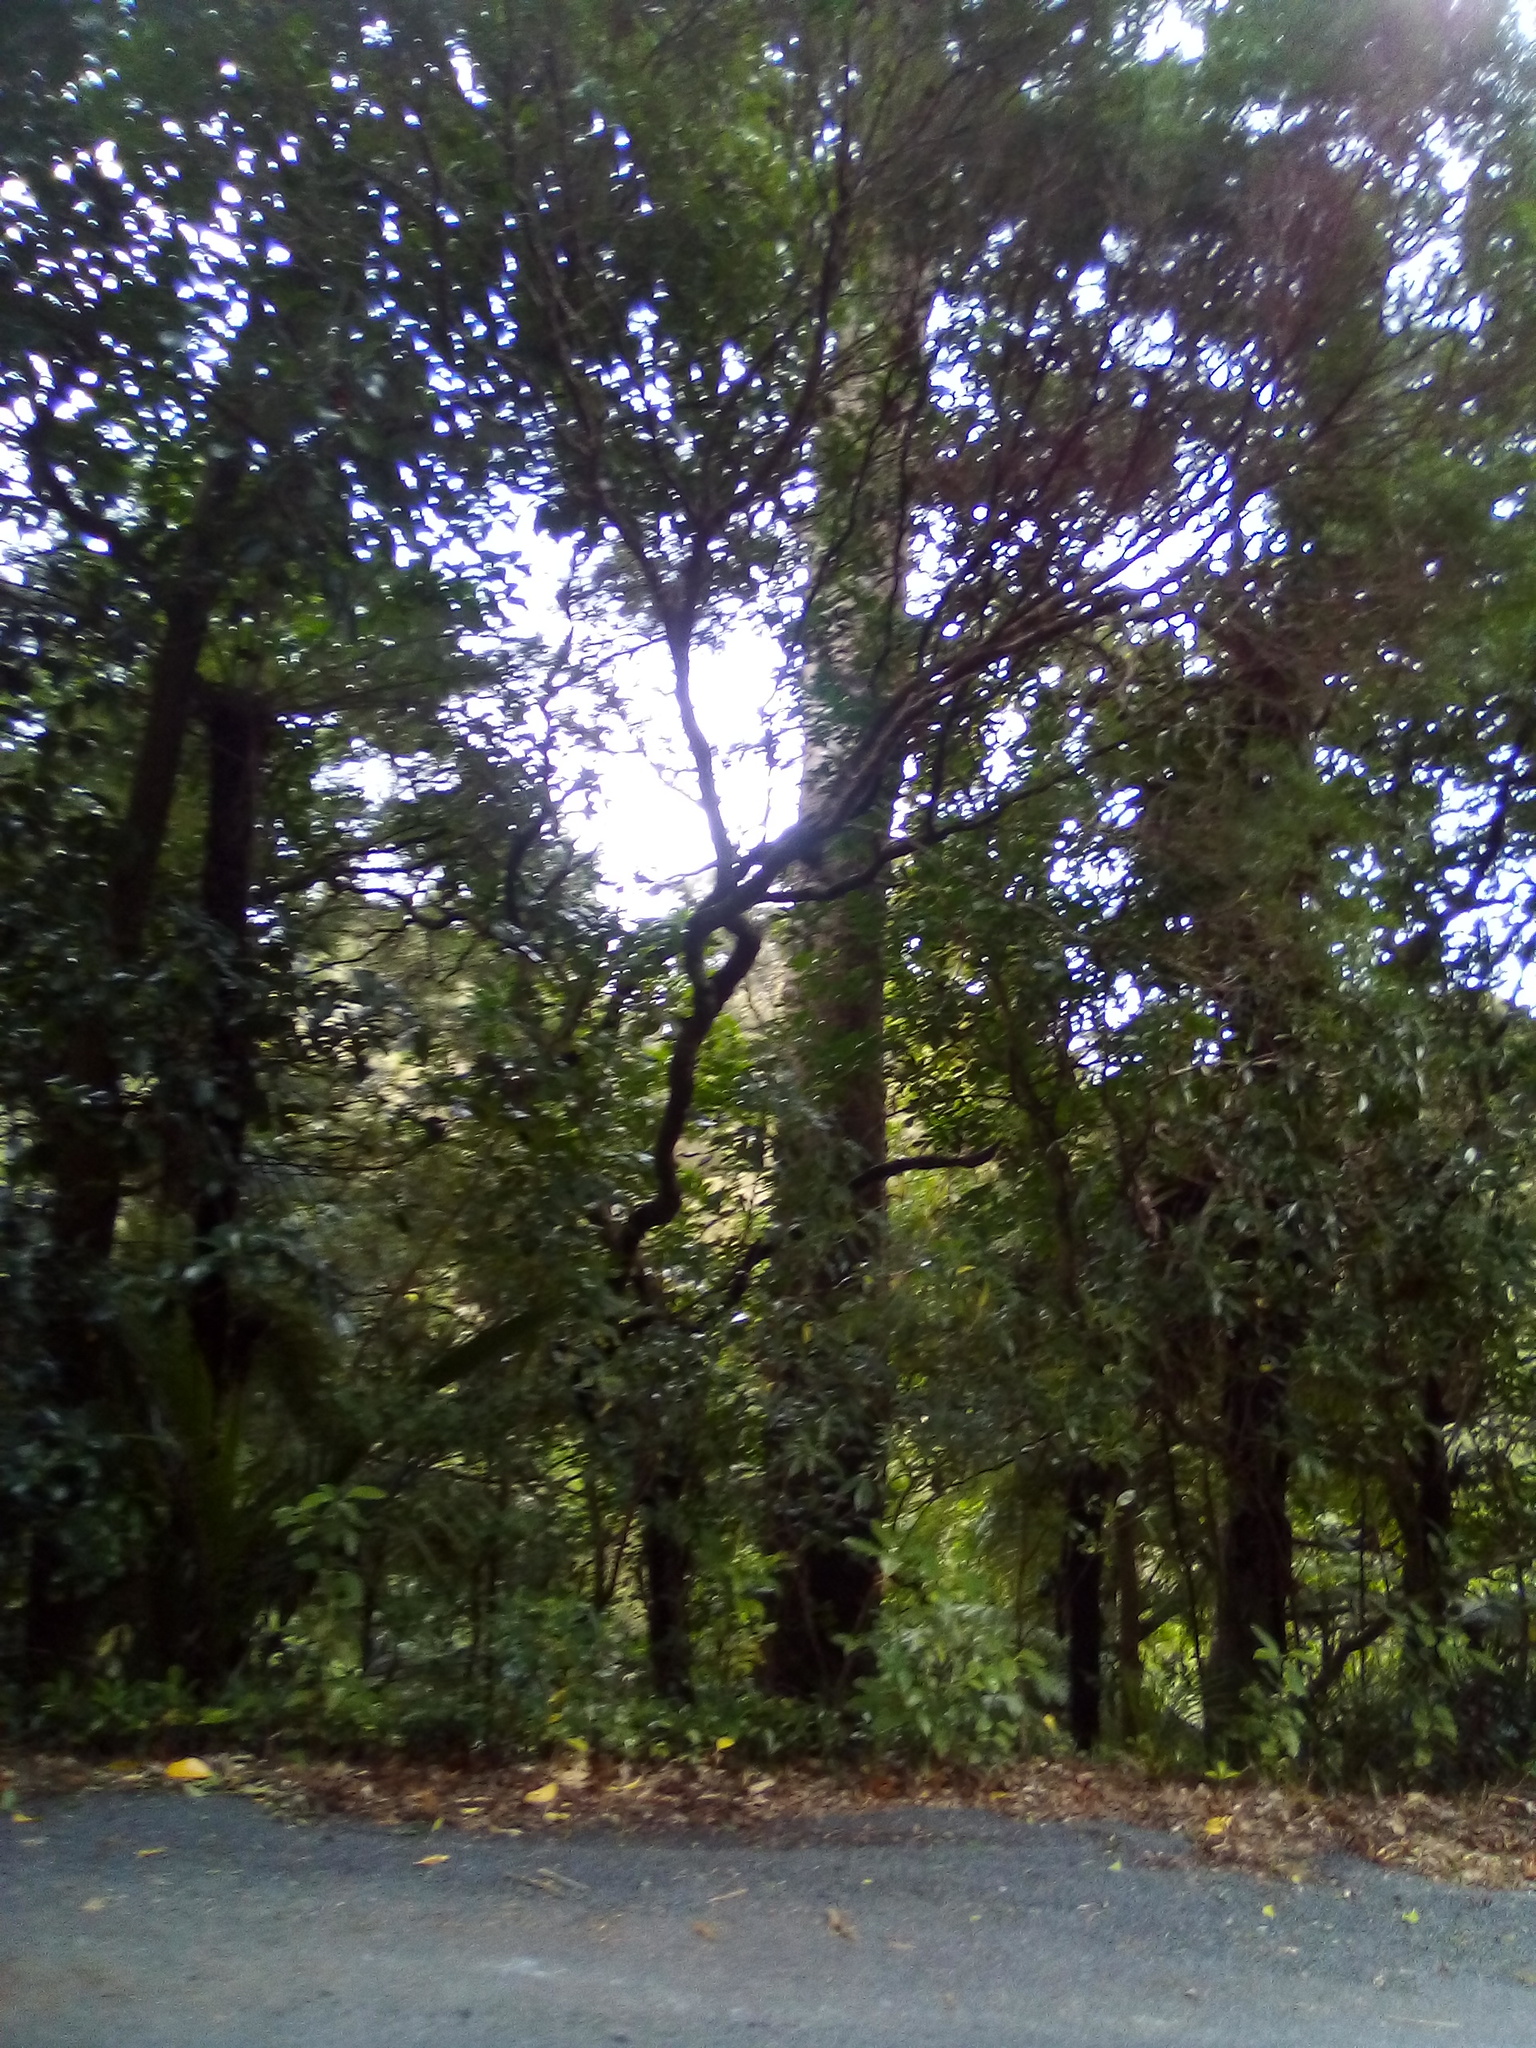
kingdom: Plantae
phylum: Tracheophyta
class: Magnoliopsida
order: Lamiales
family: Oleaceae
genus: Nestegis
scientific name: Nestegis montana
